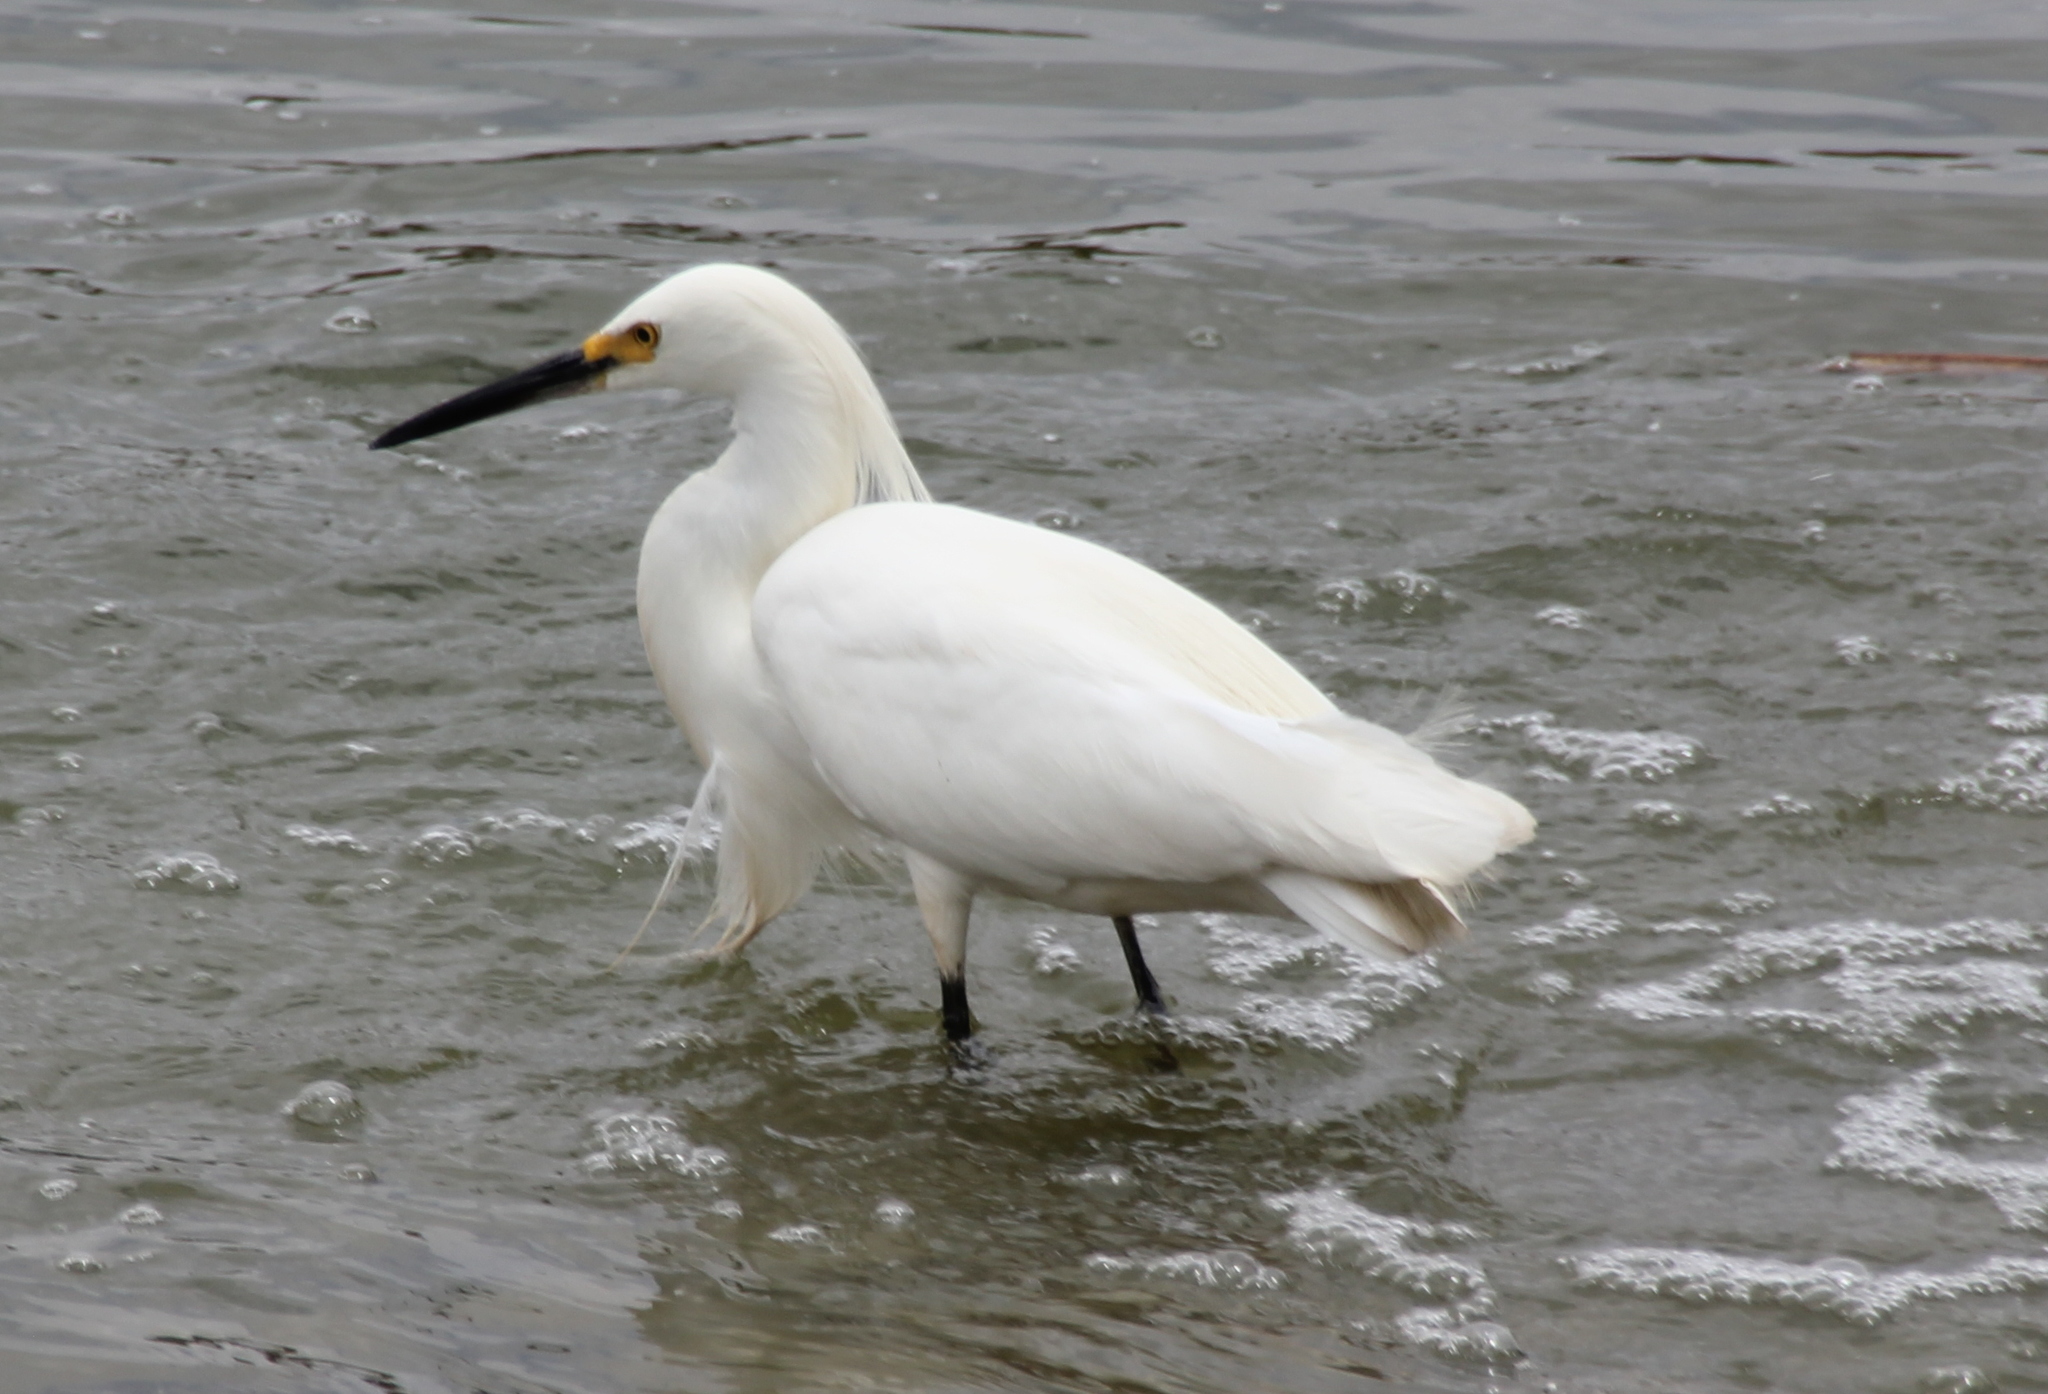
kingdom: Animalia
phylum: Chordata
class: Aves
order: Pelecaniformes
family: Ardeidae
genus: Egretta
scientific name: Egretta thula
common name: Snowy egret
